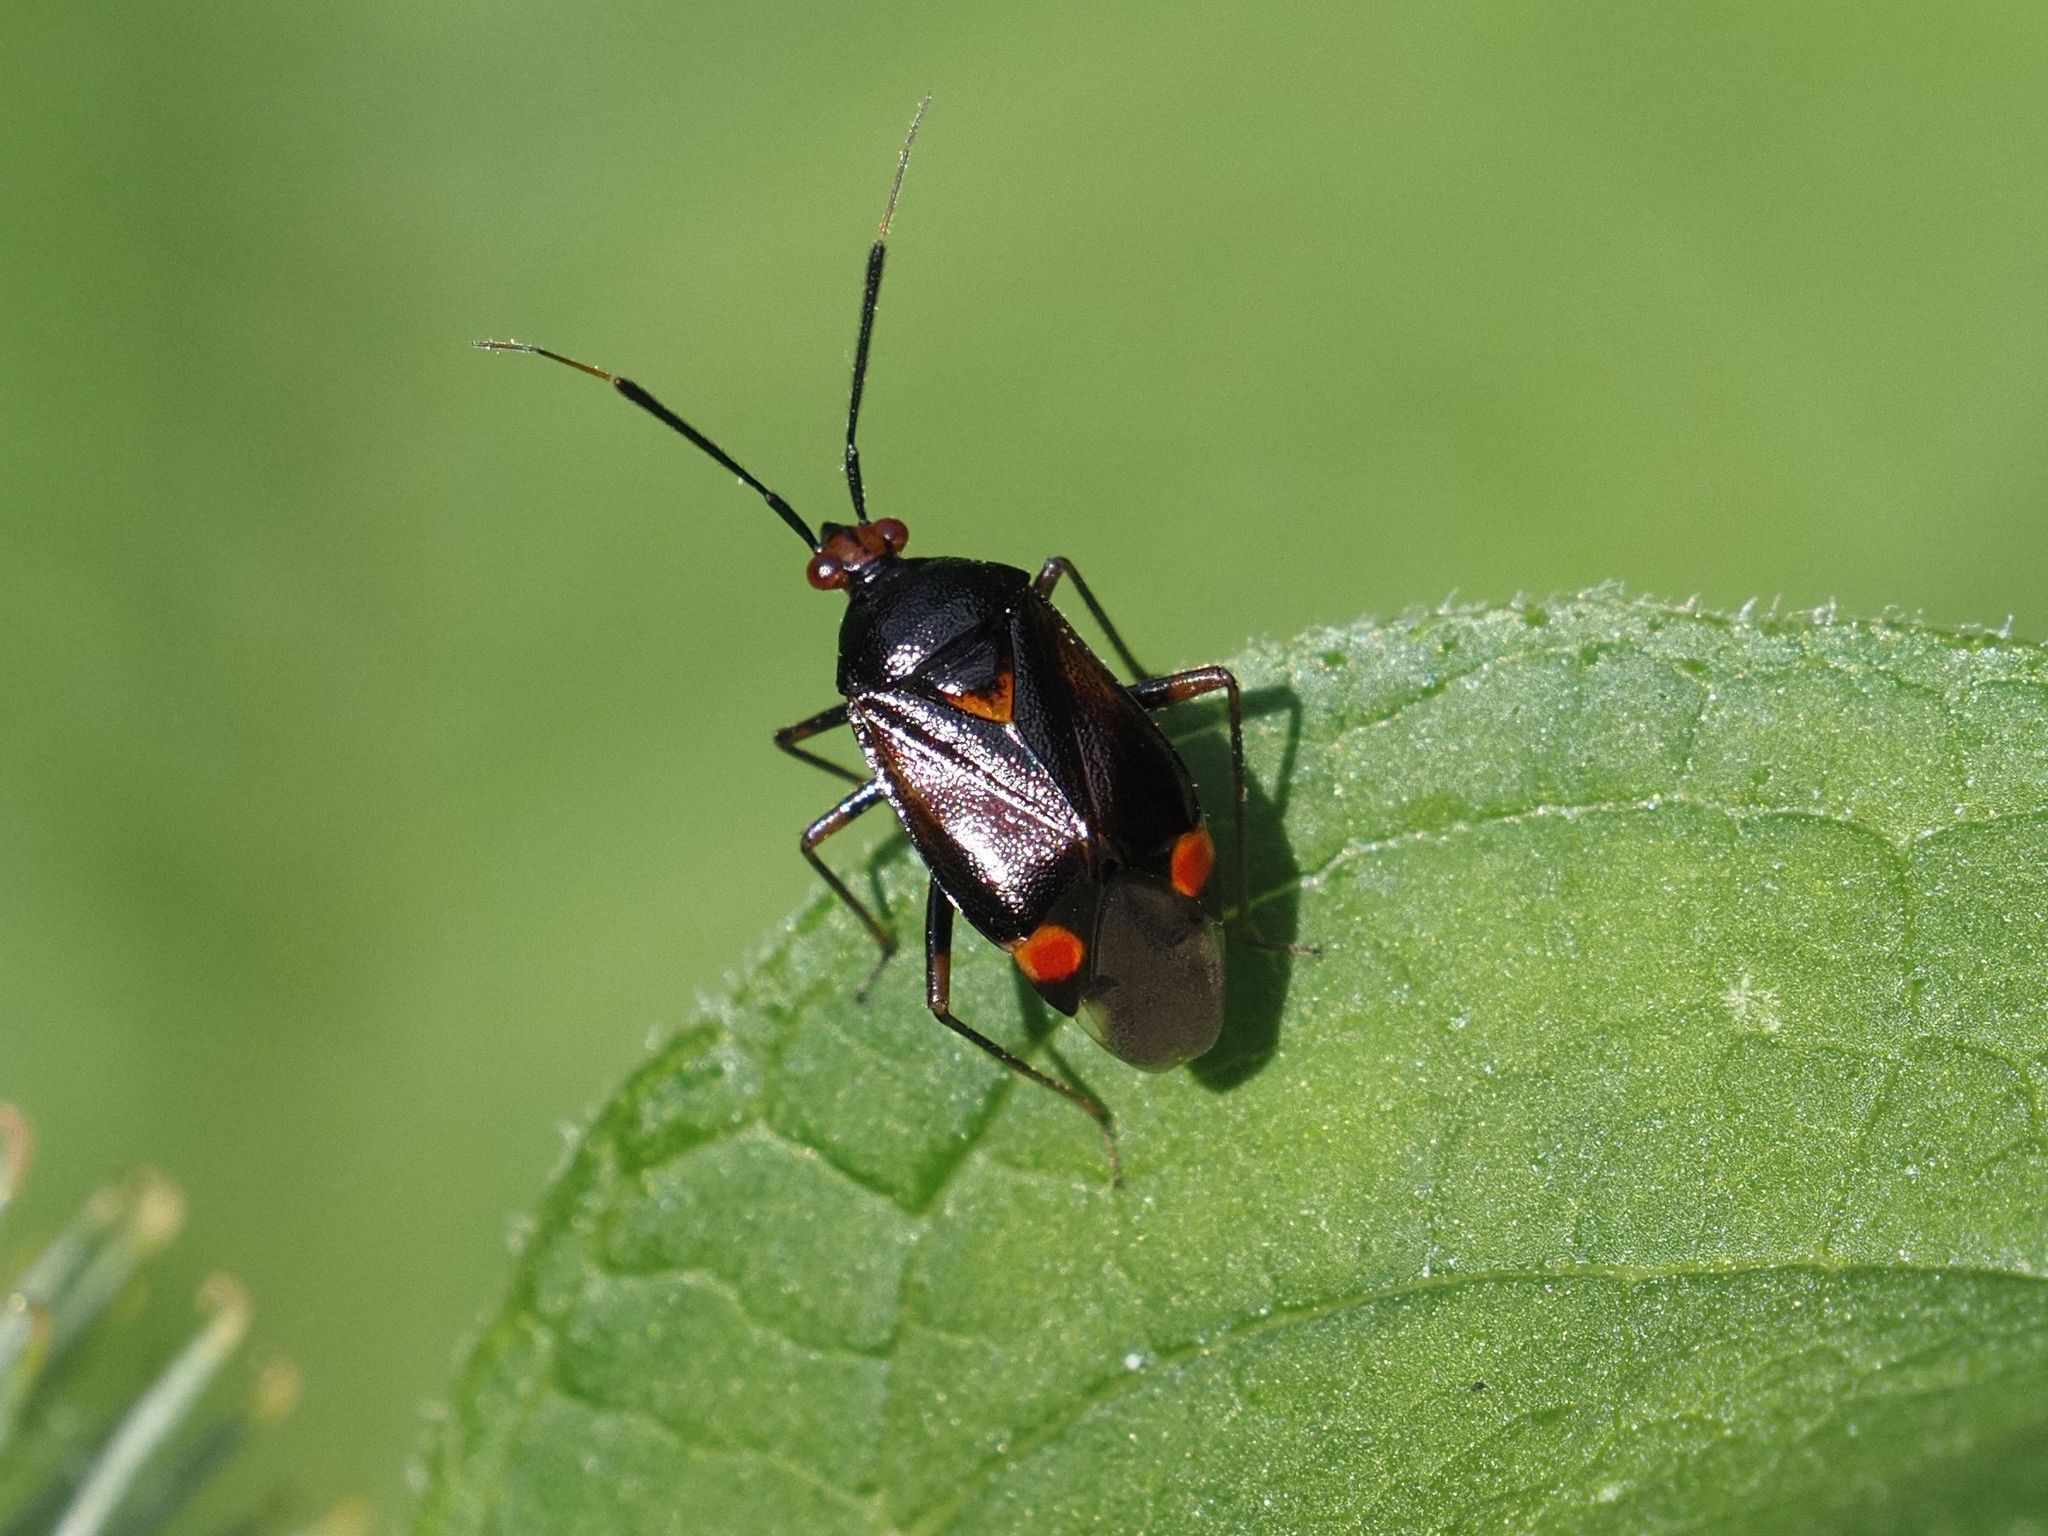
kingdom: Animalia
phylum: Arthropoda
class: Insecta
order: Hemiptera
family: Miridae
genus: Deraeocoris
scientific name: Deraeocoris ruber
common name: Plant bug
